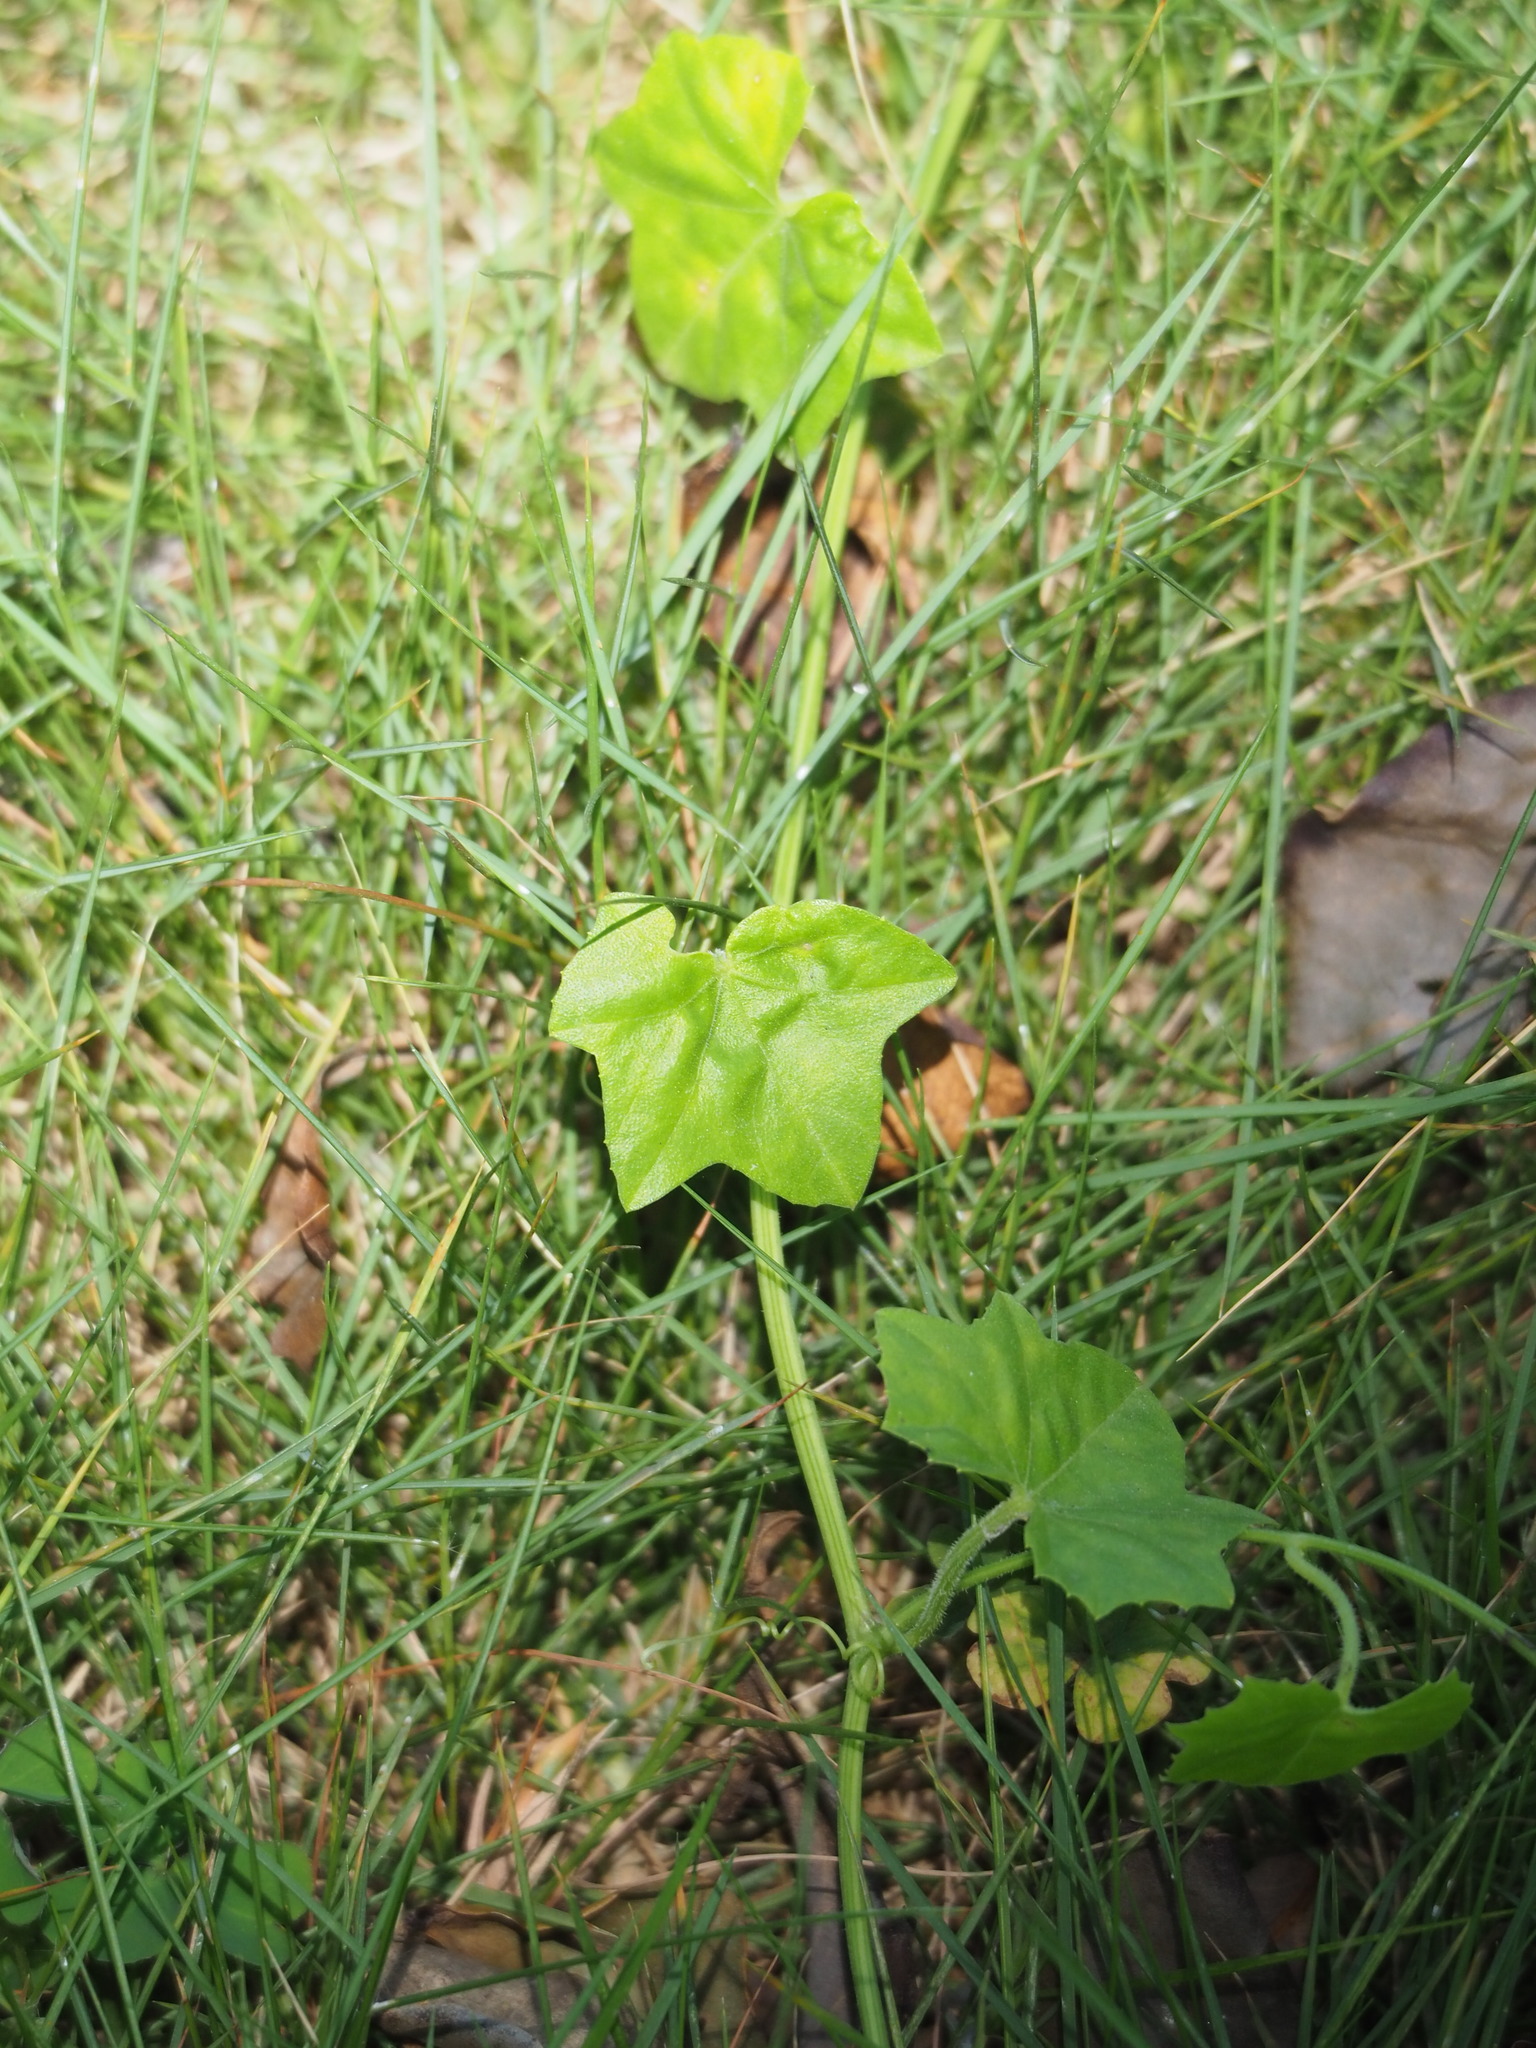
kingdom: Plantae
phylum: Tracheophyta
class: Magnoliopsida
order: Cucurbitales
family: Cucurbitaceae
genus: Melothria
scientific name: Melothria pendula
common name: Creeping-cucumber
